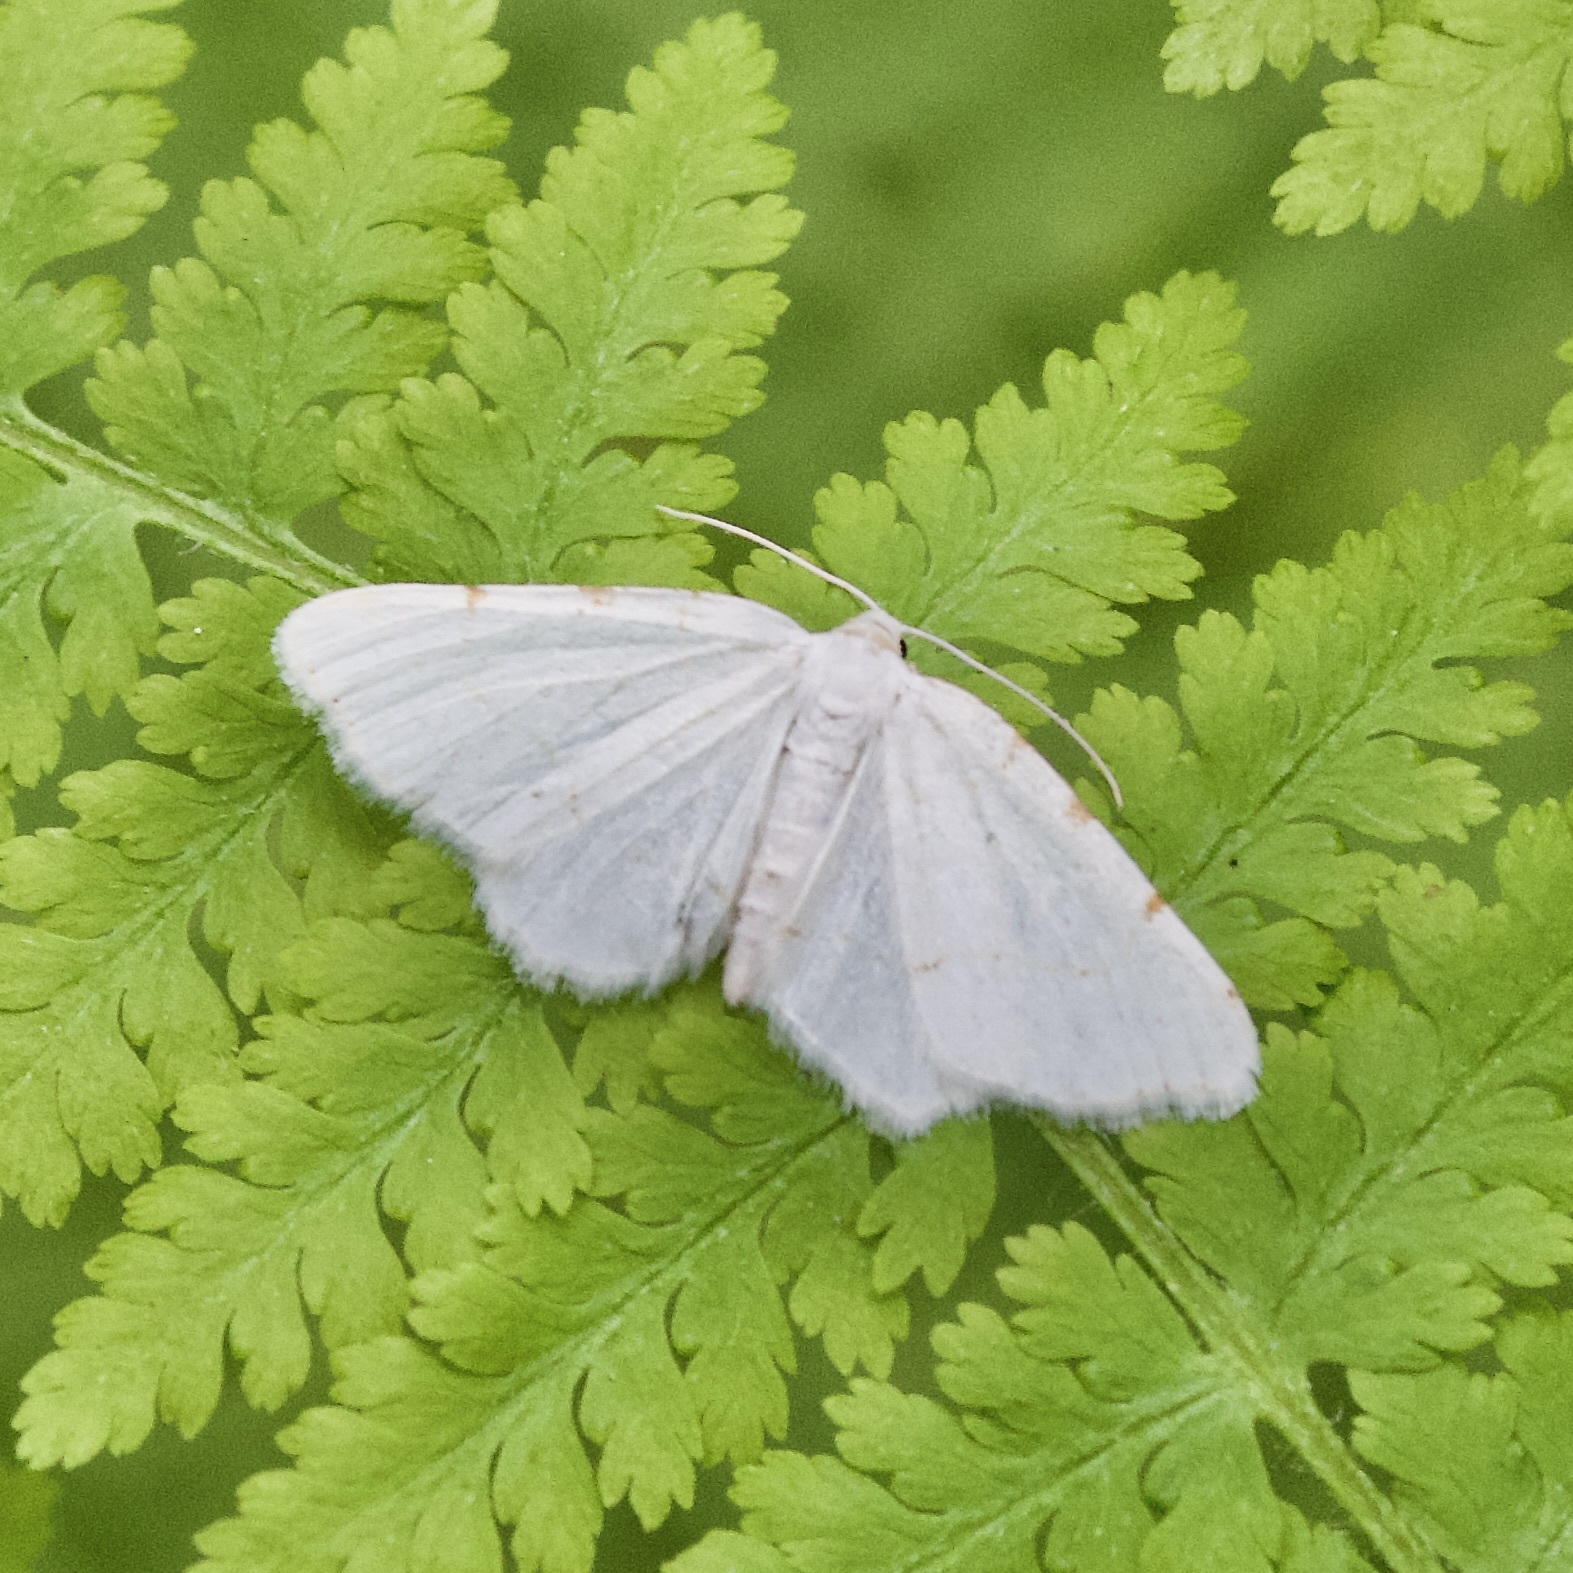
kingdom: Animalia
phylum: Arthropoda
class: Insecta
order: Lepidoptera
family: Geometridae
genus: Macaria
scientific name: Macaria pustularia
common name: Lesser maple spanworm moth
